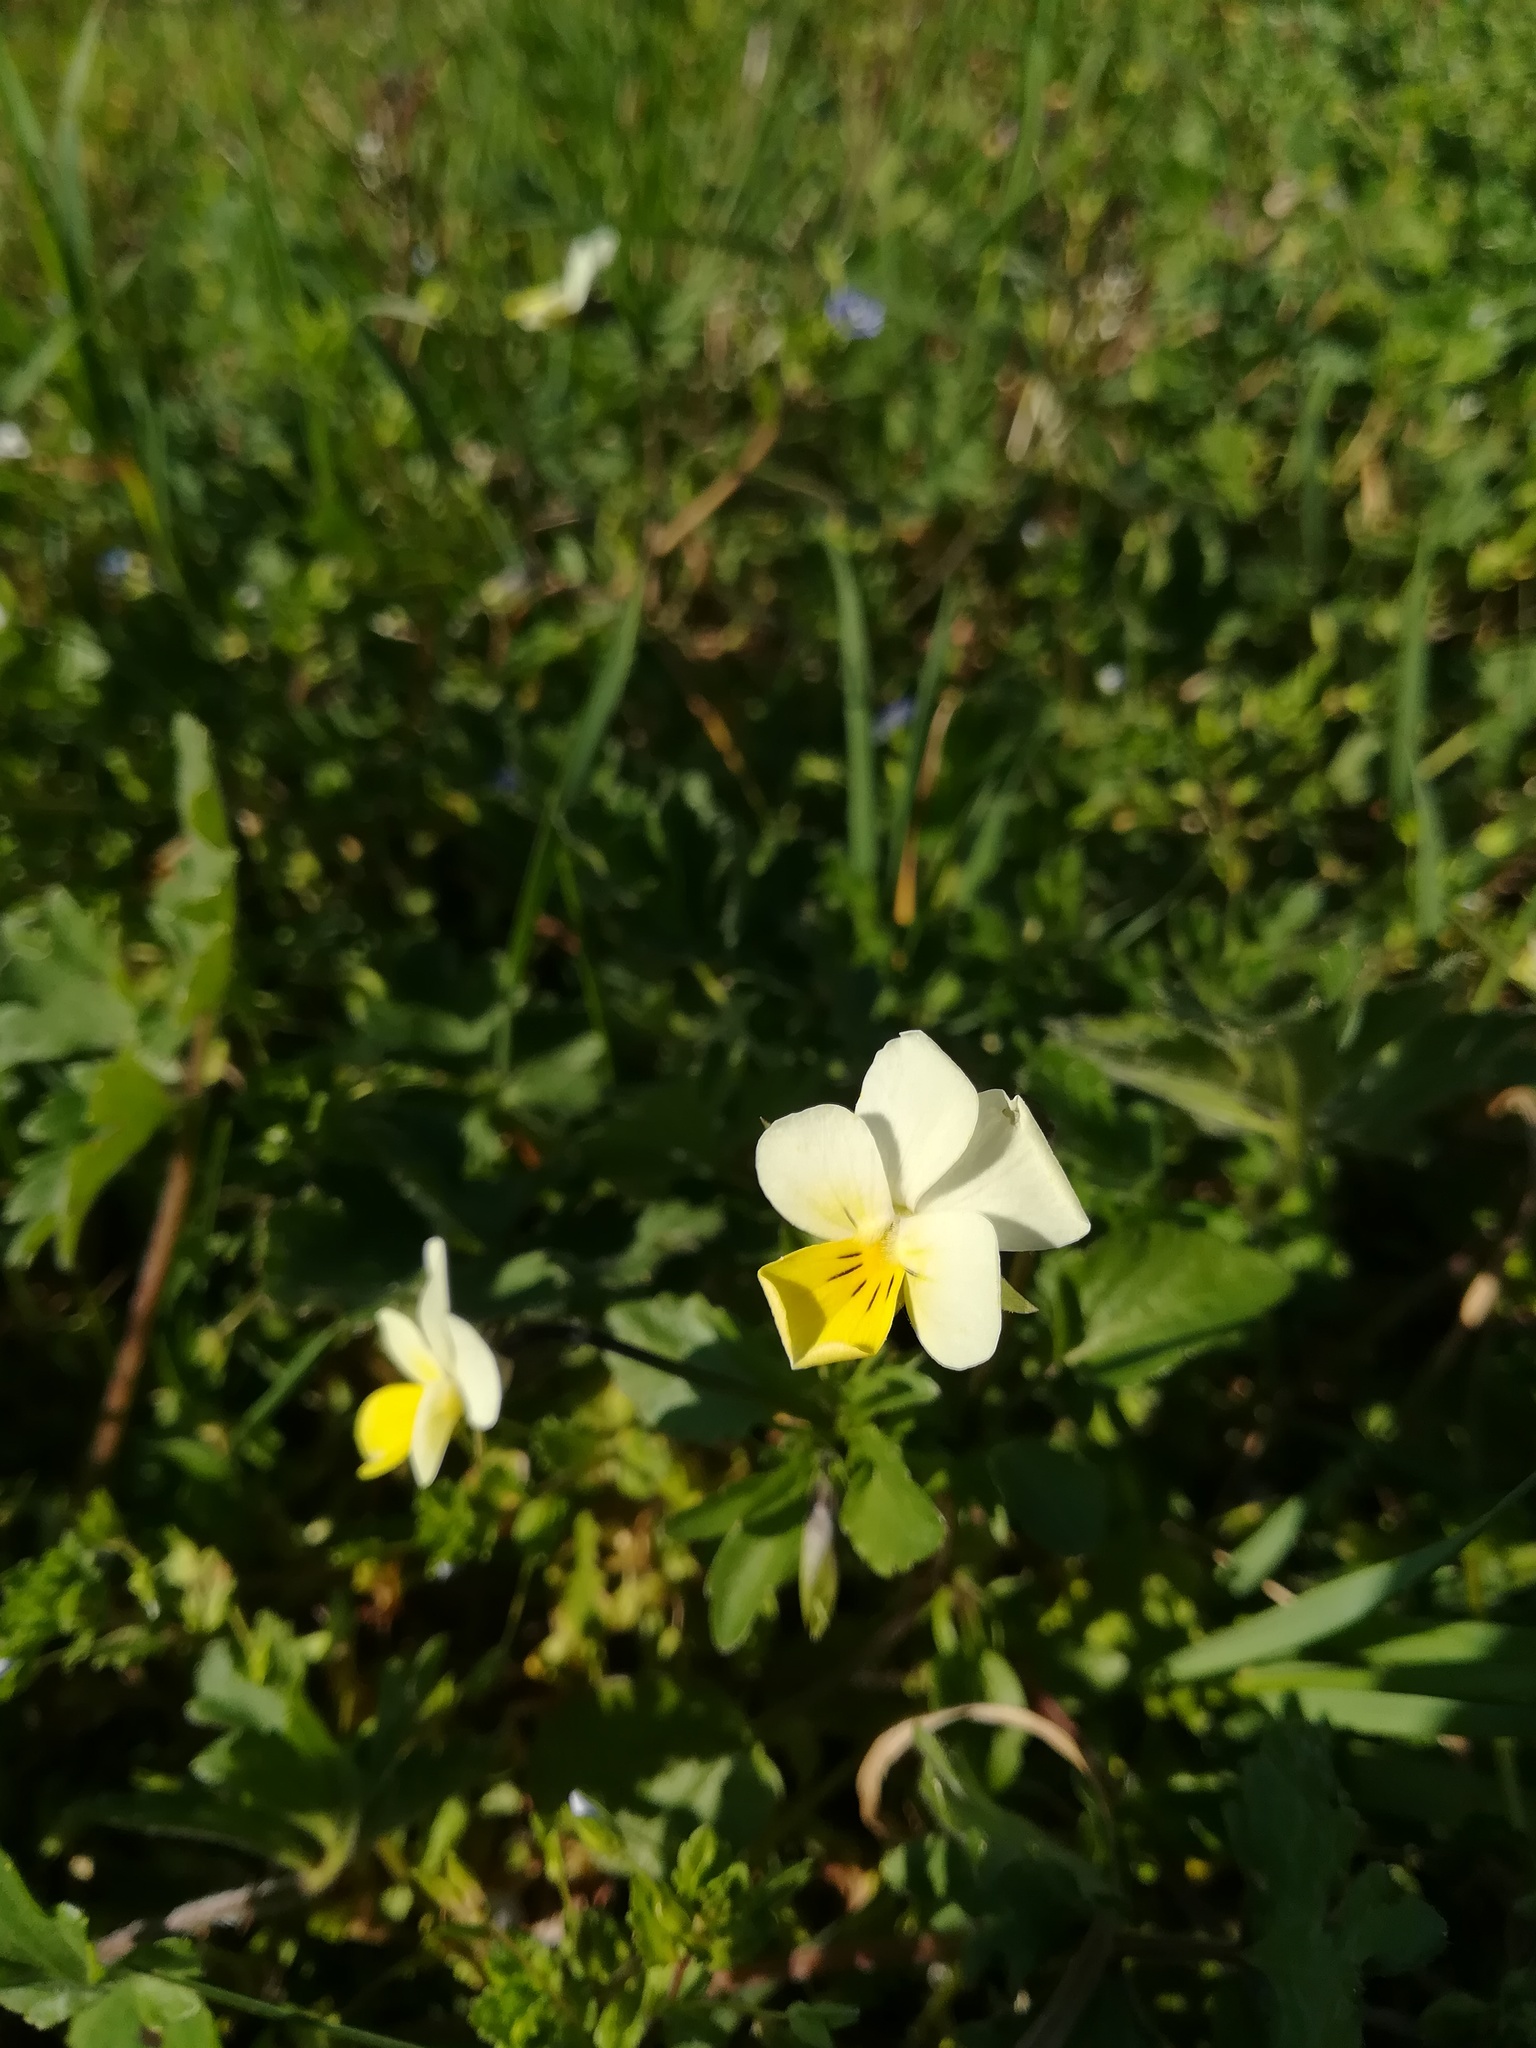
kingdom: Plantae
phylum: Tracheophyta
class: Magnoliopsida
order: Malpighiales
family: Violaceae
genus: Viola
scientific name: Viola arvensis
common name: Field pansy
